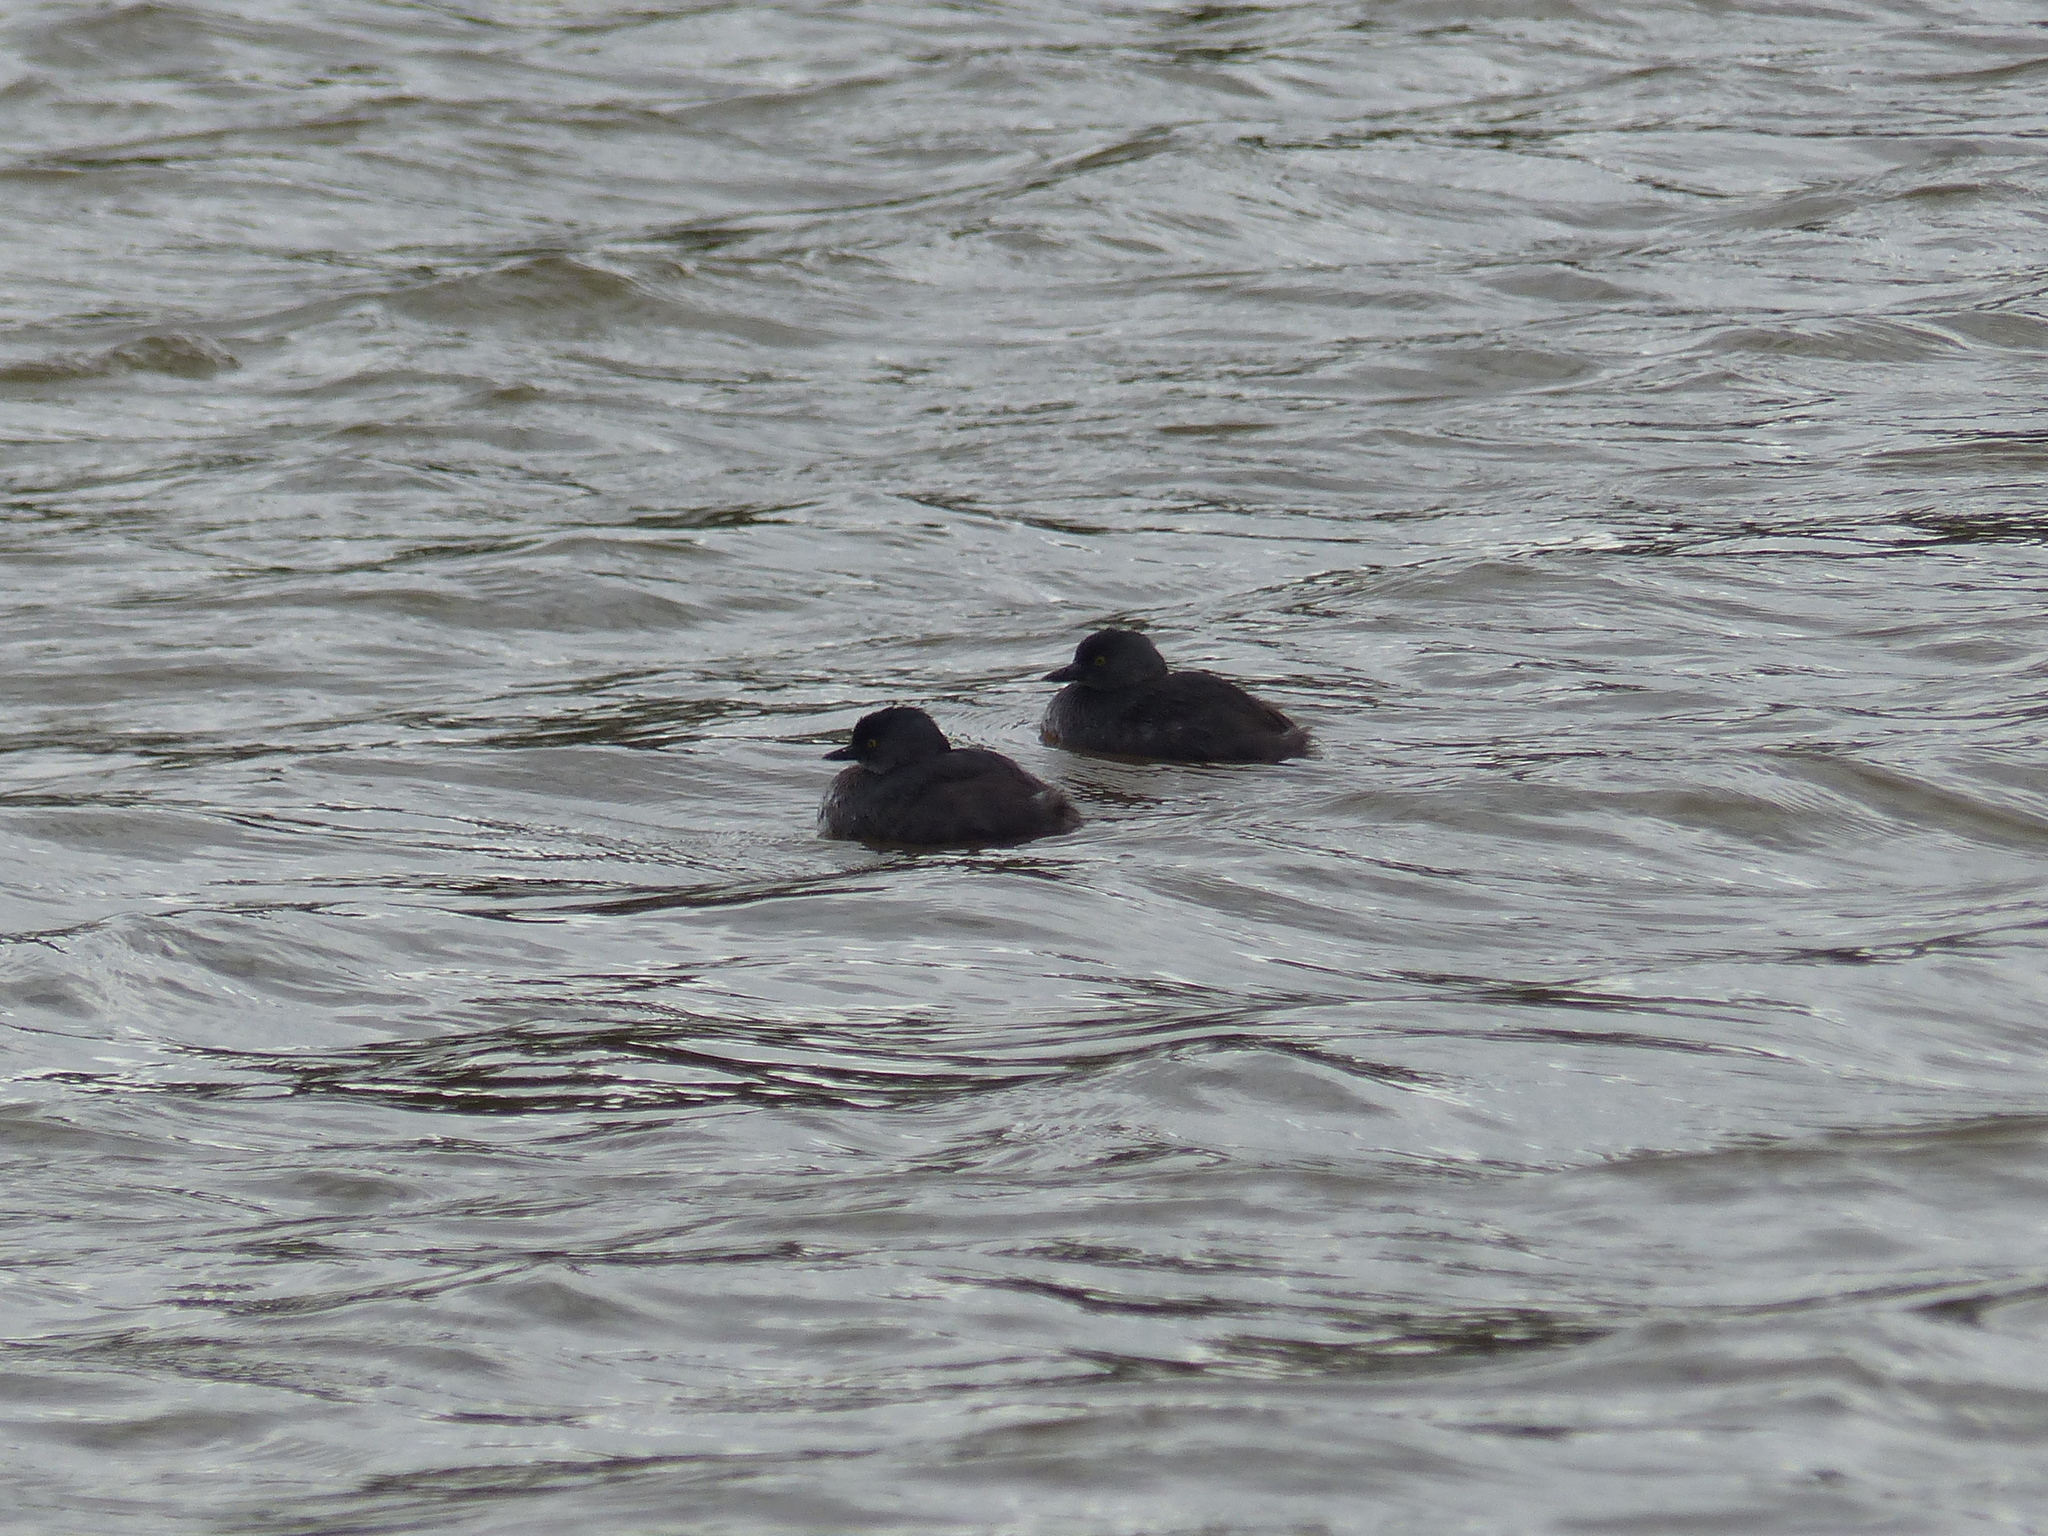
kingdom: Animalia
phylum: Chordata
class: Aves
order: Podicipediformes
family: Podicipedidae
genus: Tachybaptus
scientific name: Tachybaptus dominicus
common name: Least grebe
